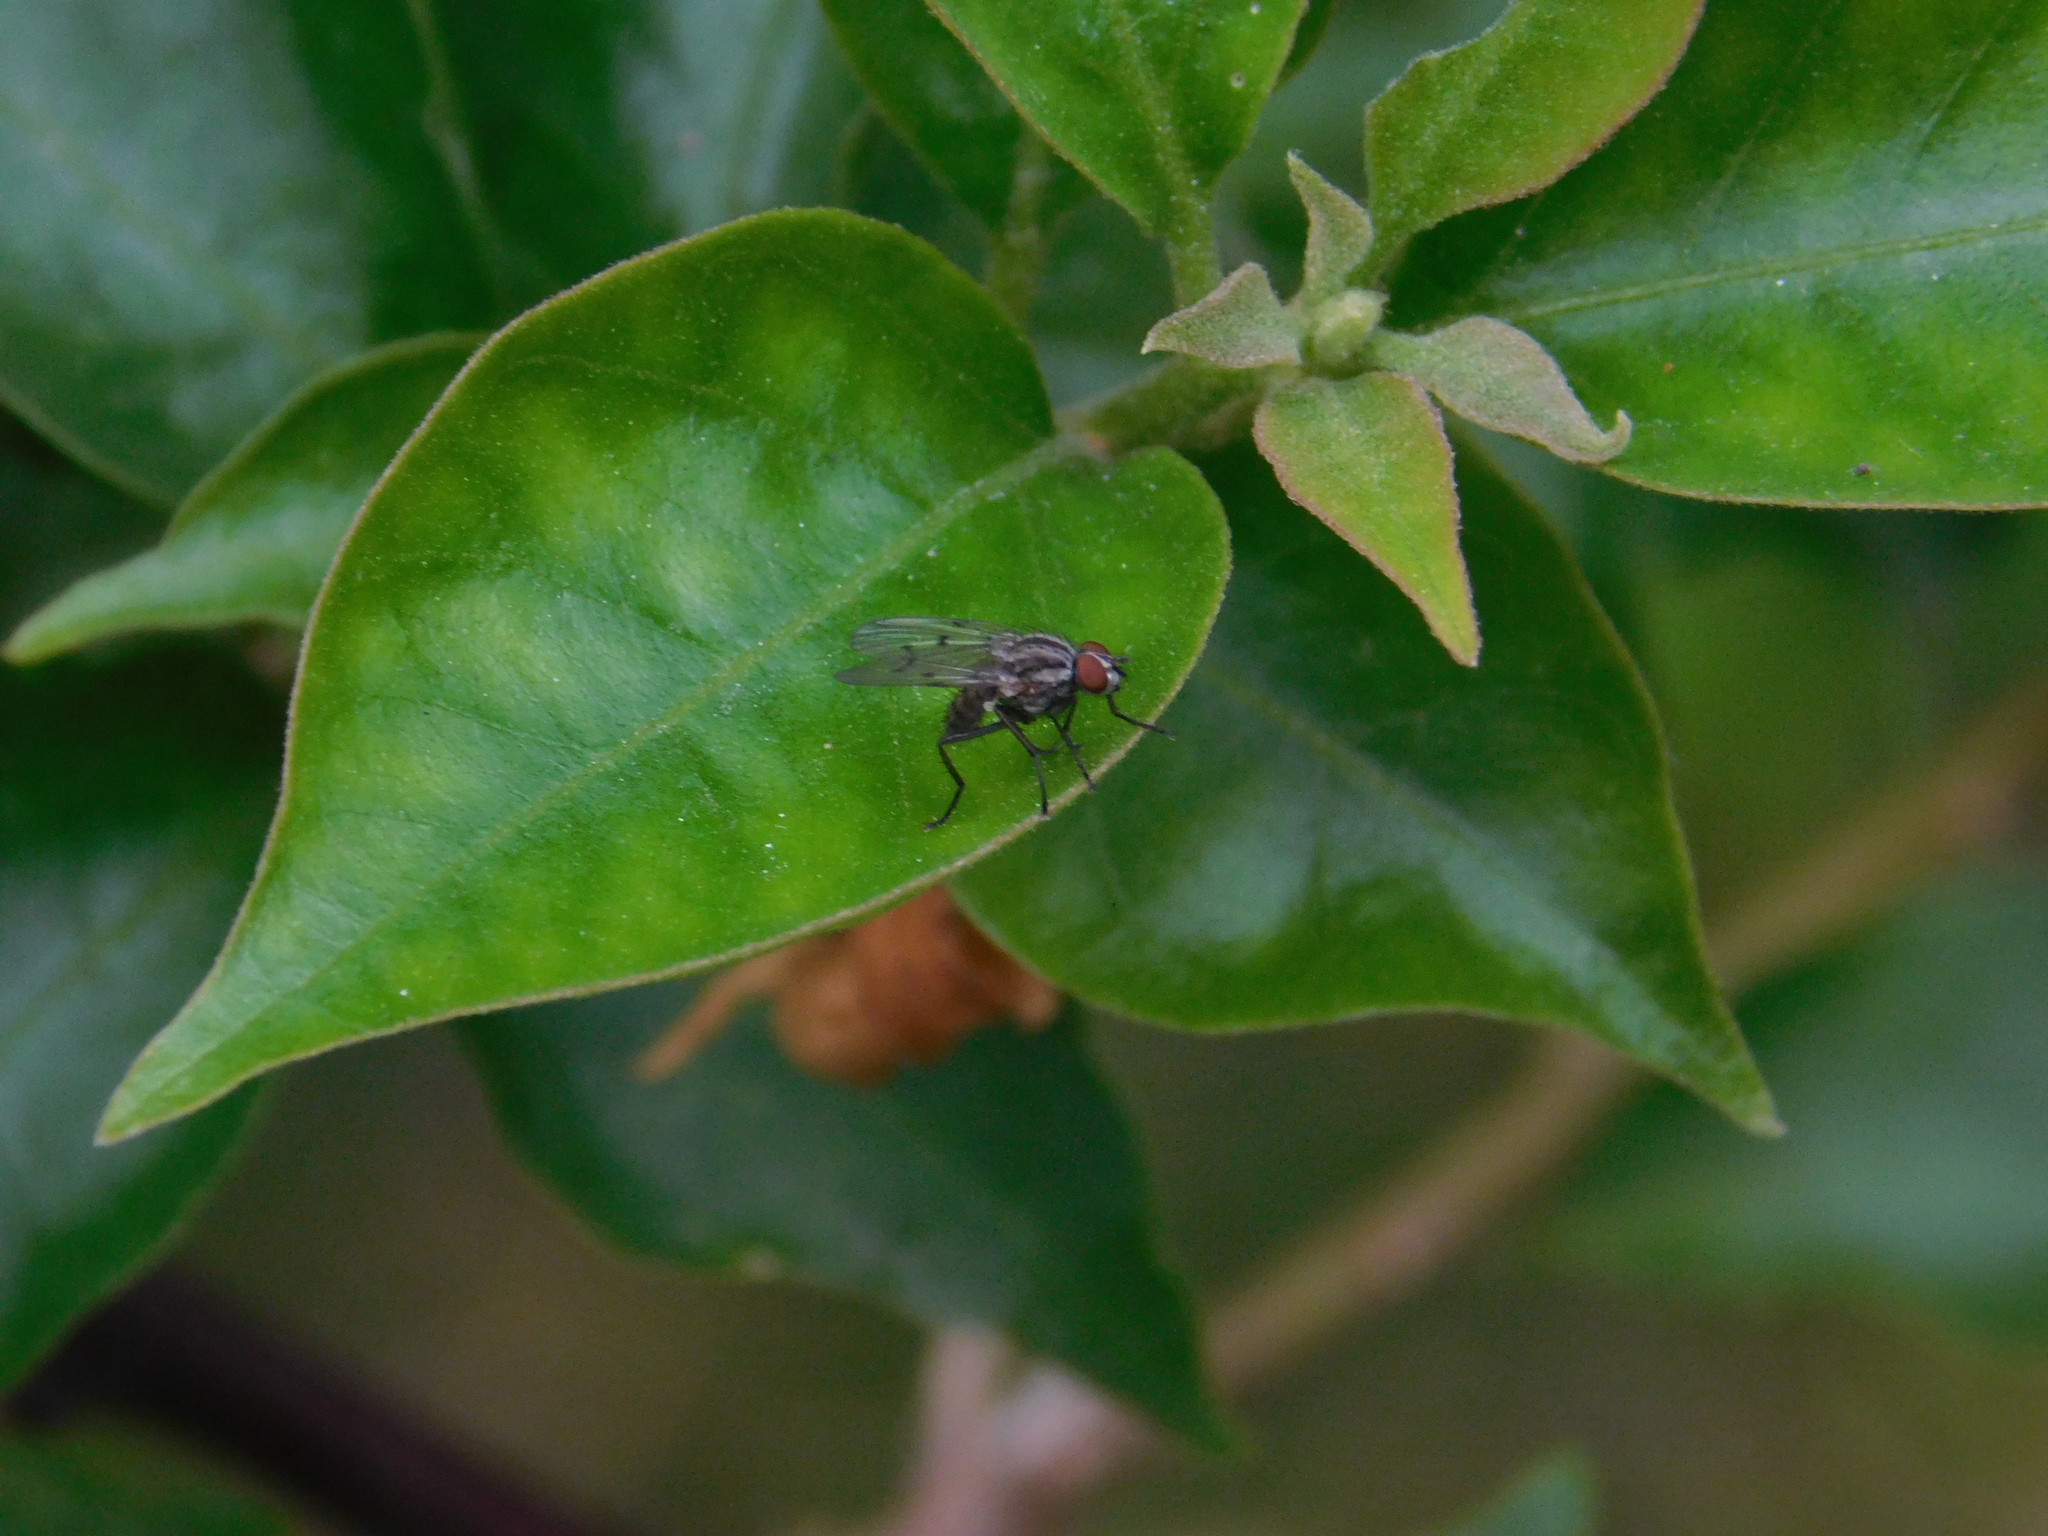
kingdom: Animalia
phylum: Arthropoda
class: Insecta
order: Diptera
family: Anthomyiidae
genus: Anthomyia
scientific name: Anthomyia punctipennis
